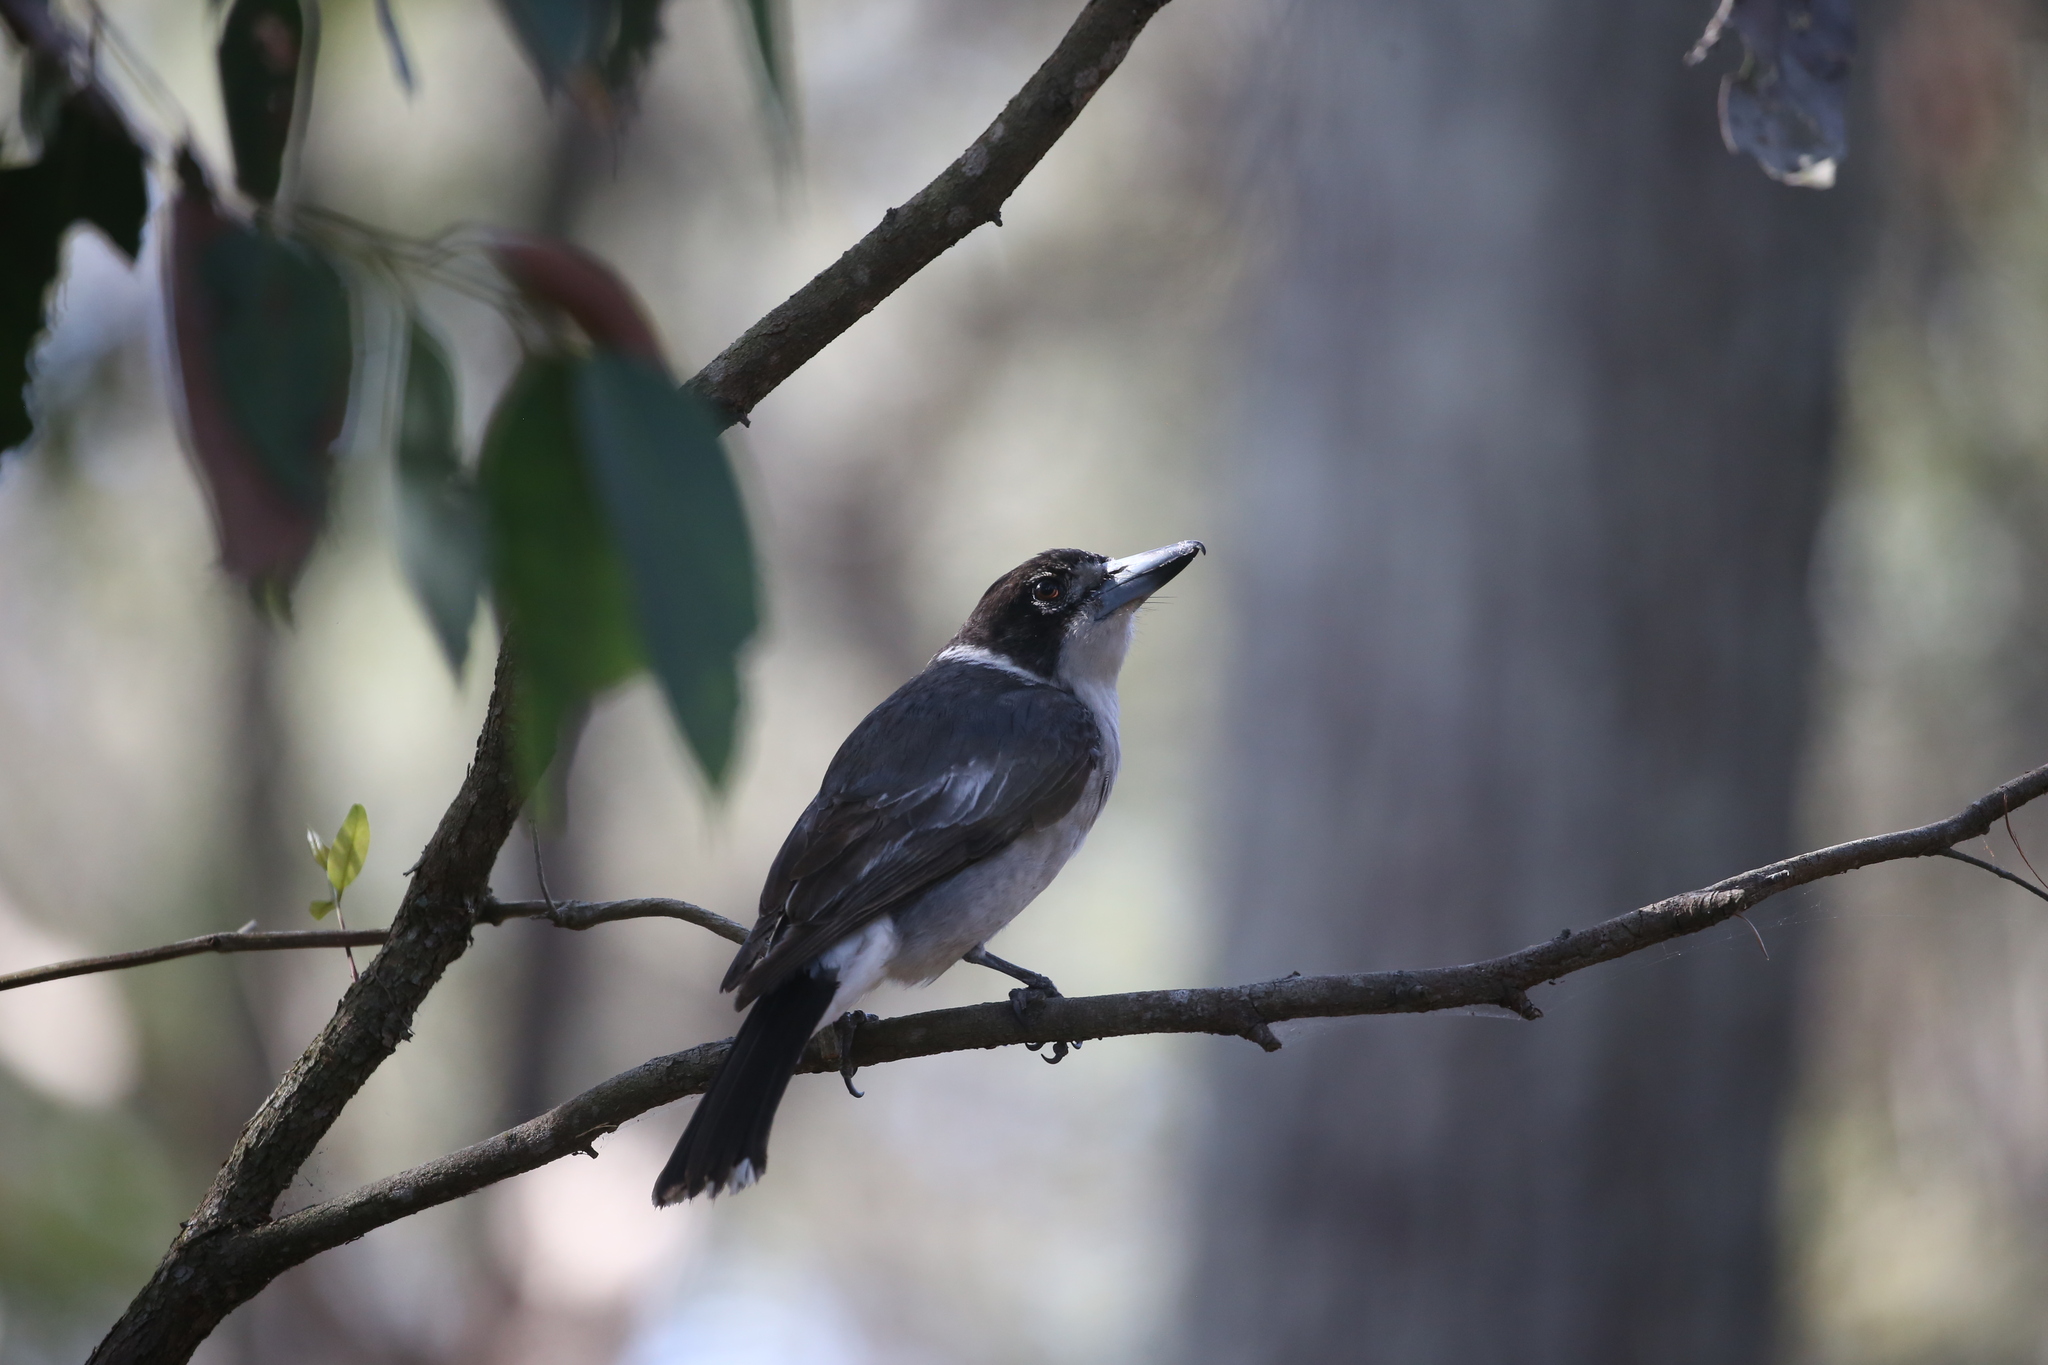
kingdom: Animalia
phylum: Chordata
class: Aves
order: Passeriformes
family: Cracticidae
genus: Cracticus
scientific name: Cracticus torquatus
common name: Grey butcherbird
